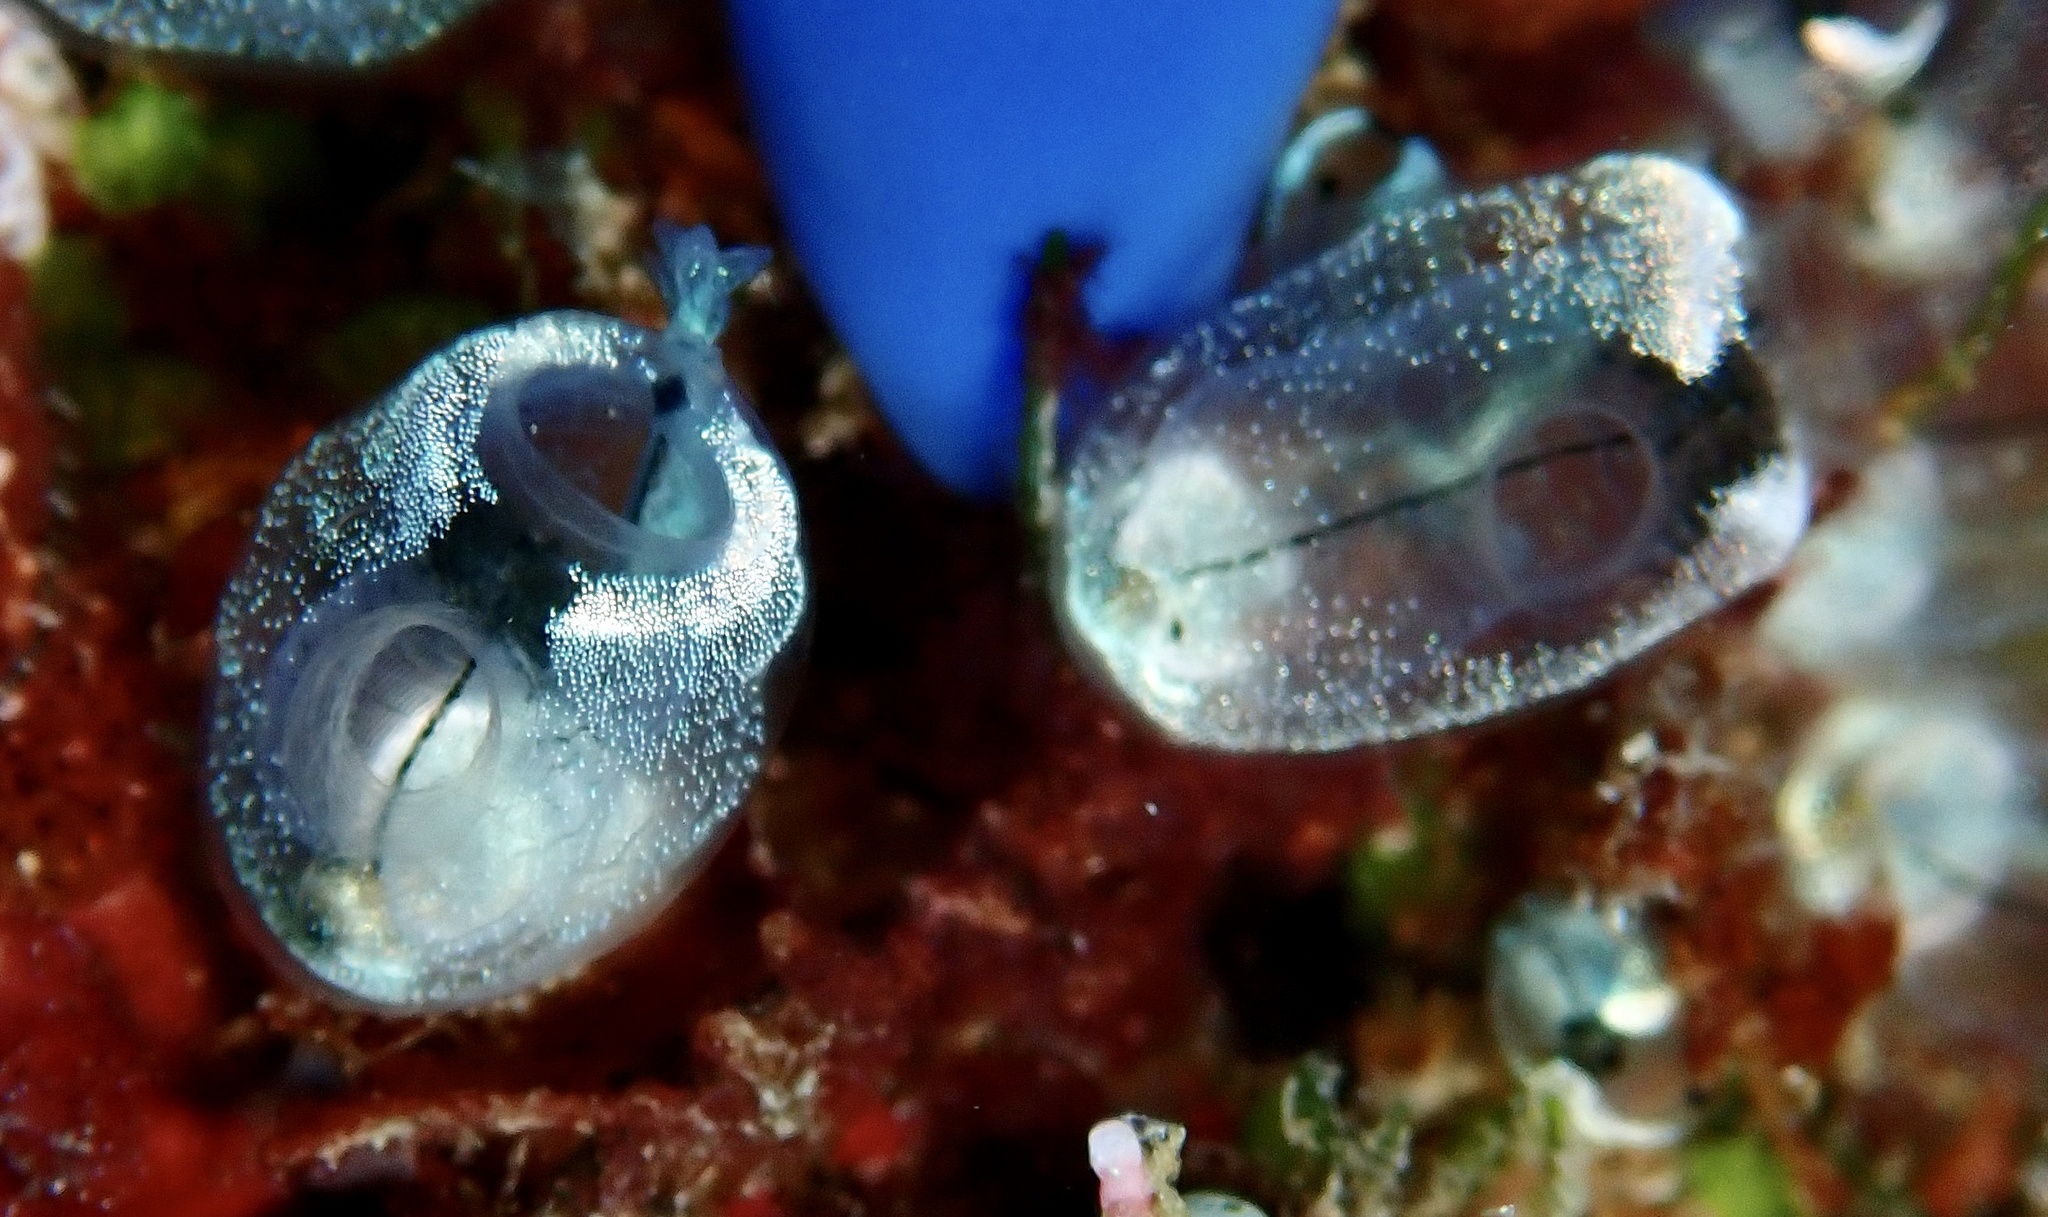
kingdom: Animalia
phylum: Chordata
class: Ascidiacea
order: Aplousobranchia
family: Clavelinidae
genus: Clavelina
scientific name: Clavelina obesa
